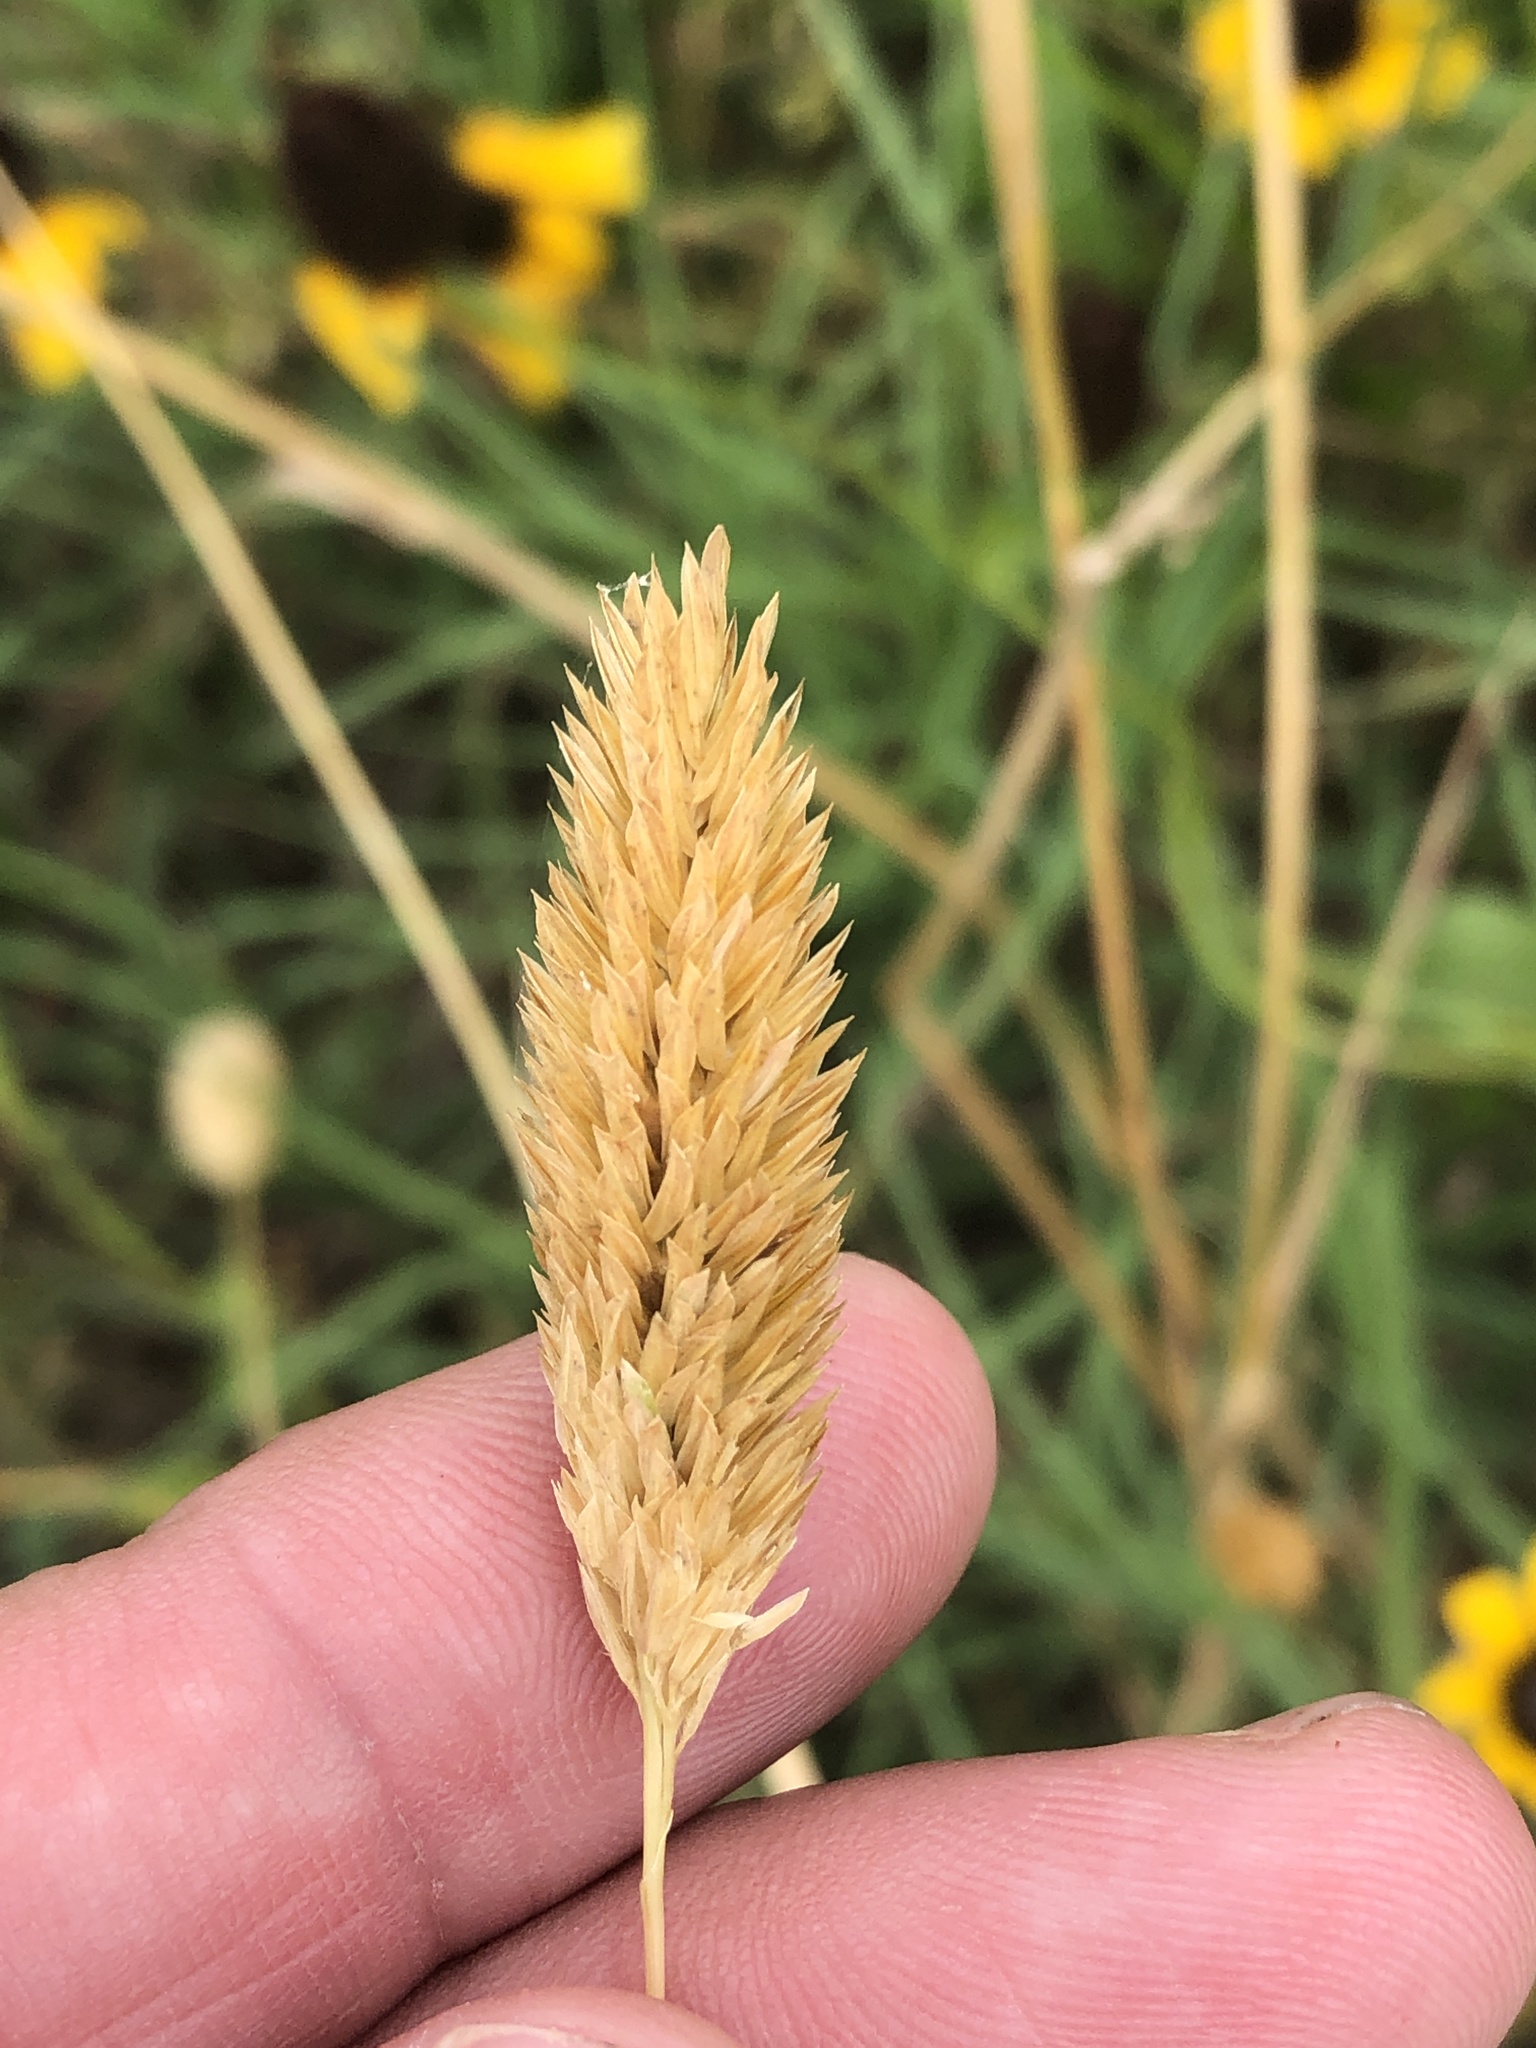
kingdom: Plantae
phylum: Tracheophyta
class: Liliopsida
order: Poales
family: Poaceae
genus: Phalaris
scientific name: Phalaris caroliniana
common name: May grass
